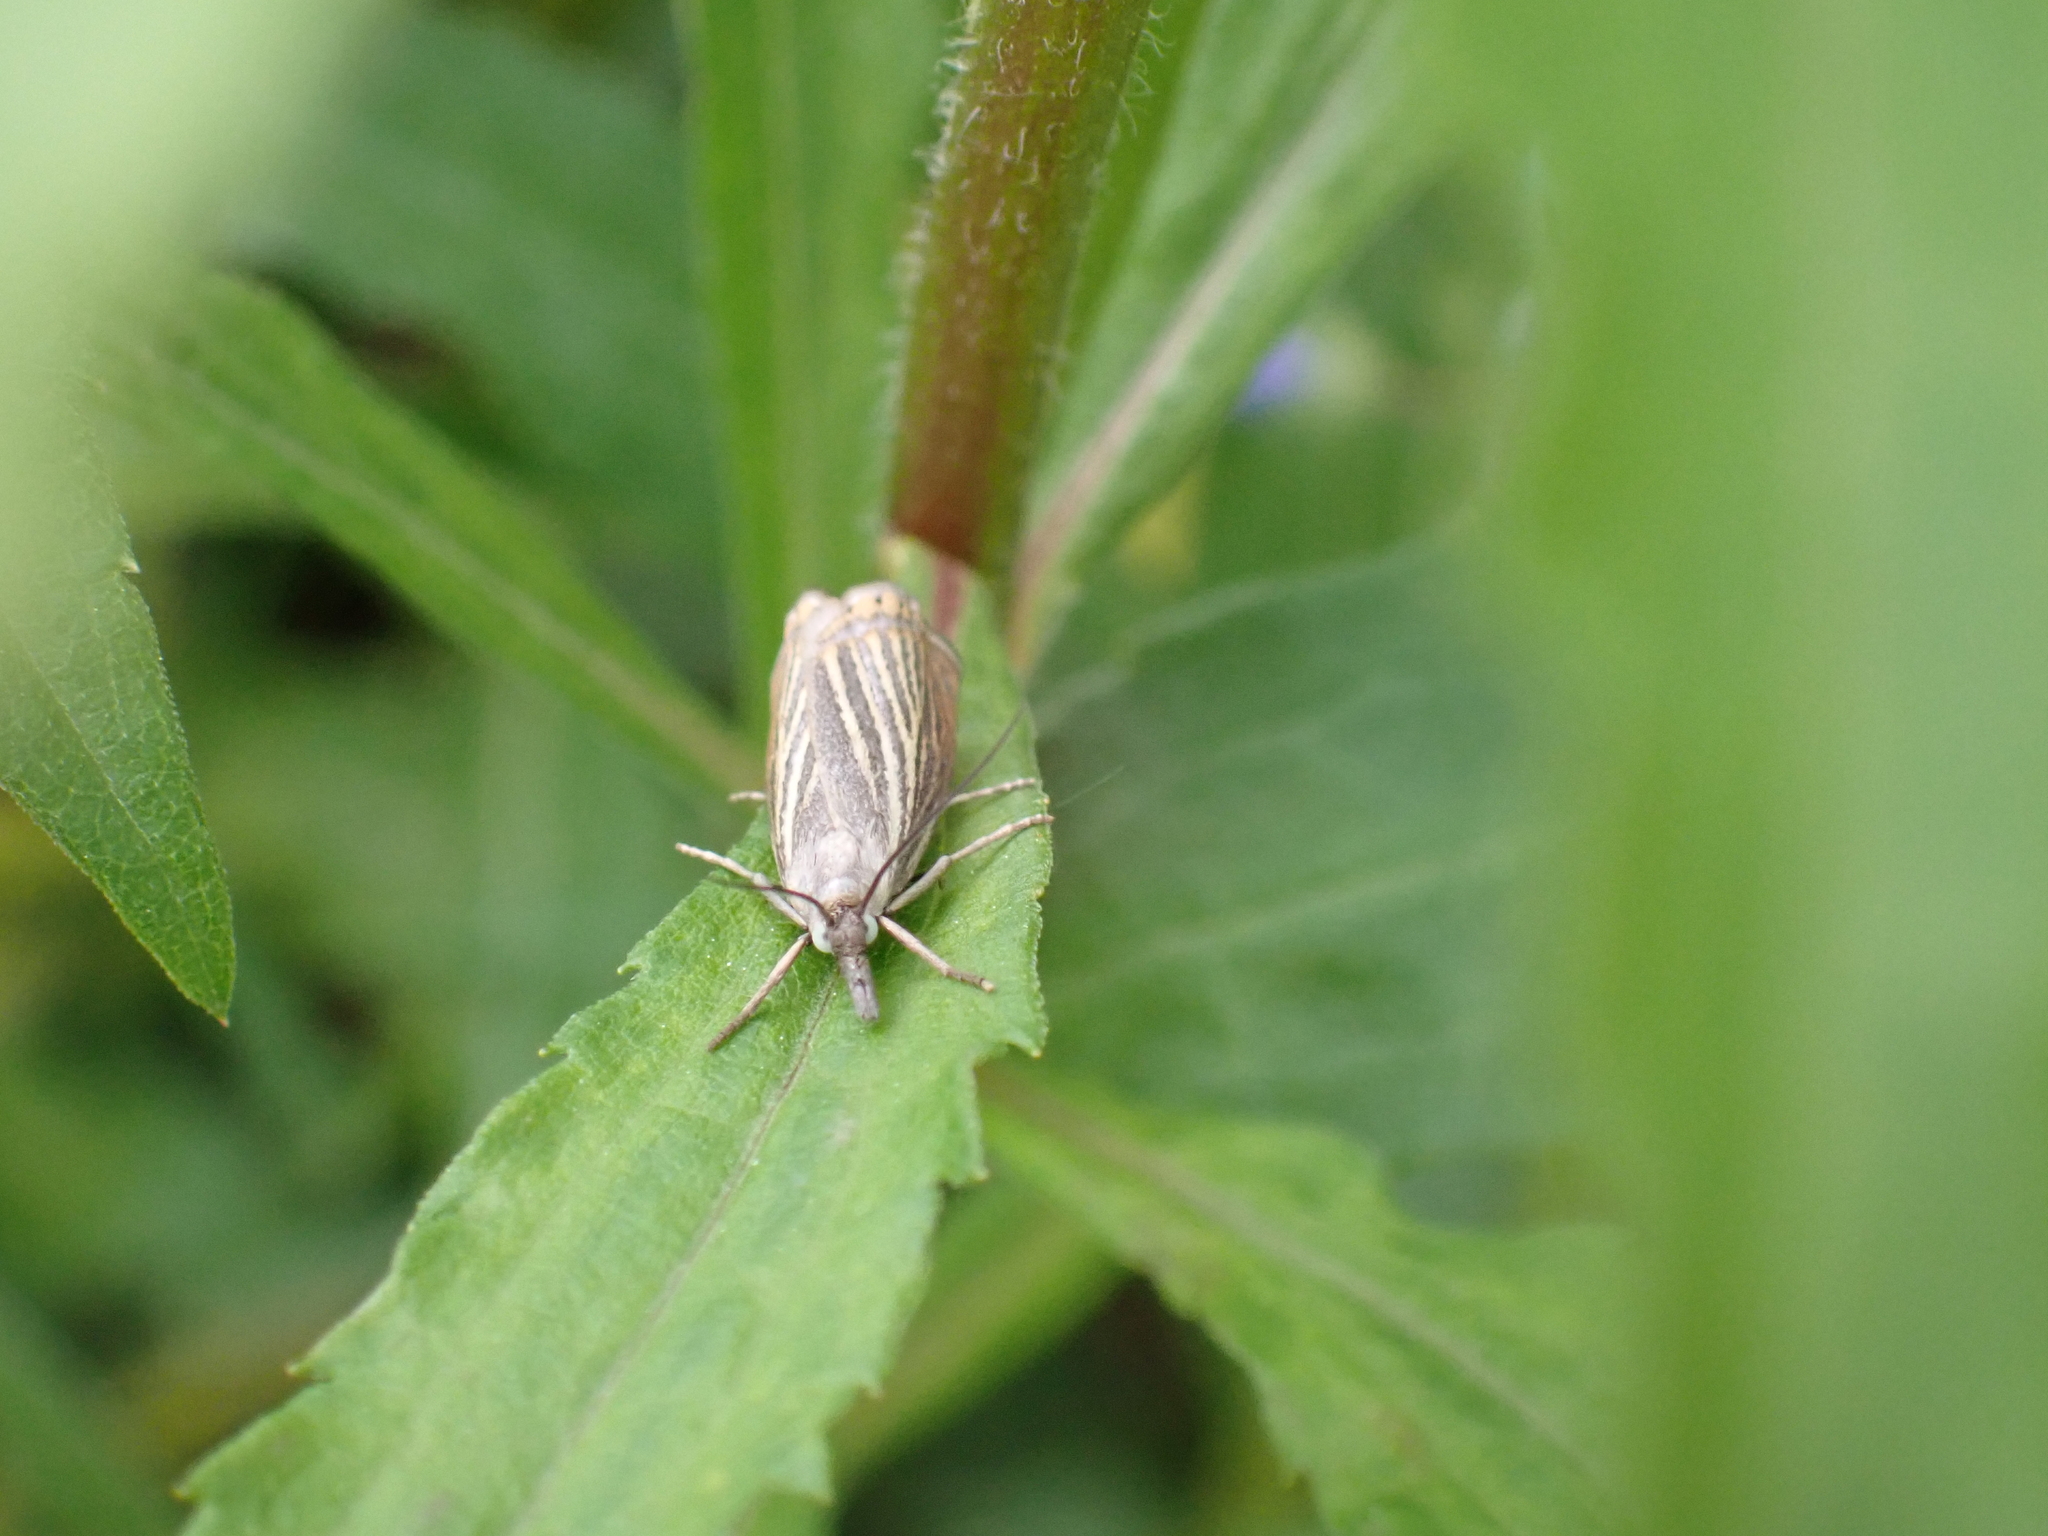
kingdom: Animalia
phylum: Arthropoda
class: Insecta
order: Lepidoptera
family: Crambidae
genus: Chrysoteuchia
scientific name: Chrysoteuchia culmella
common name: Garden grass-veneer
